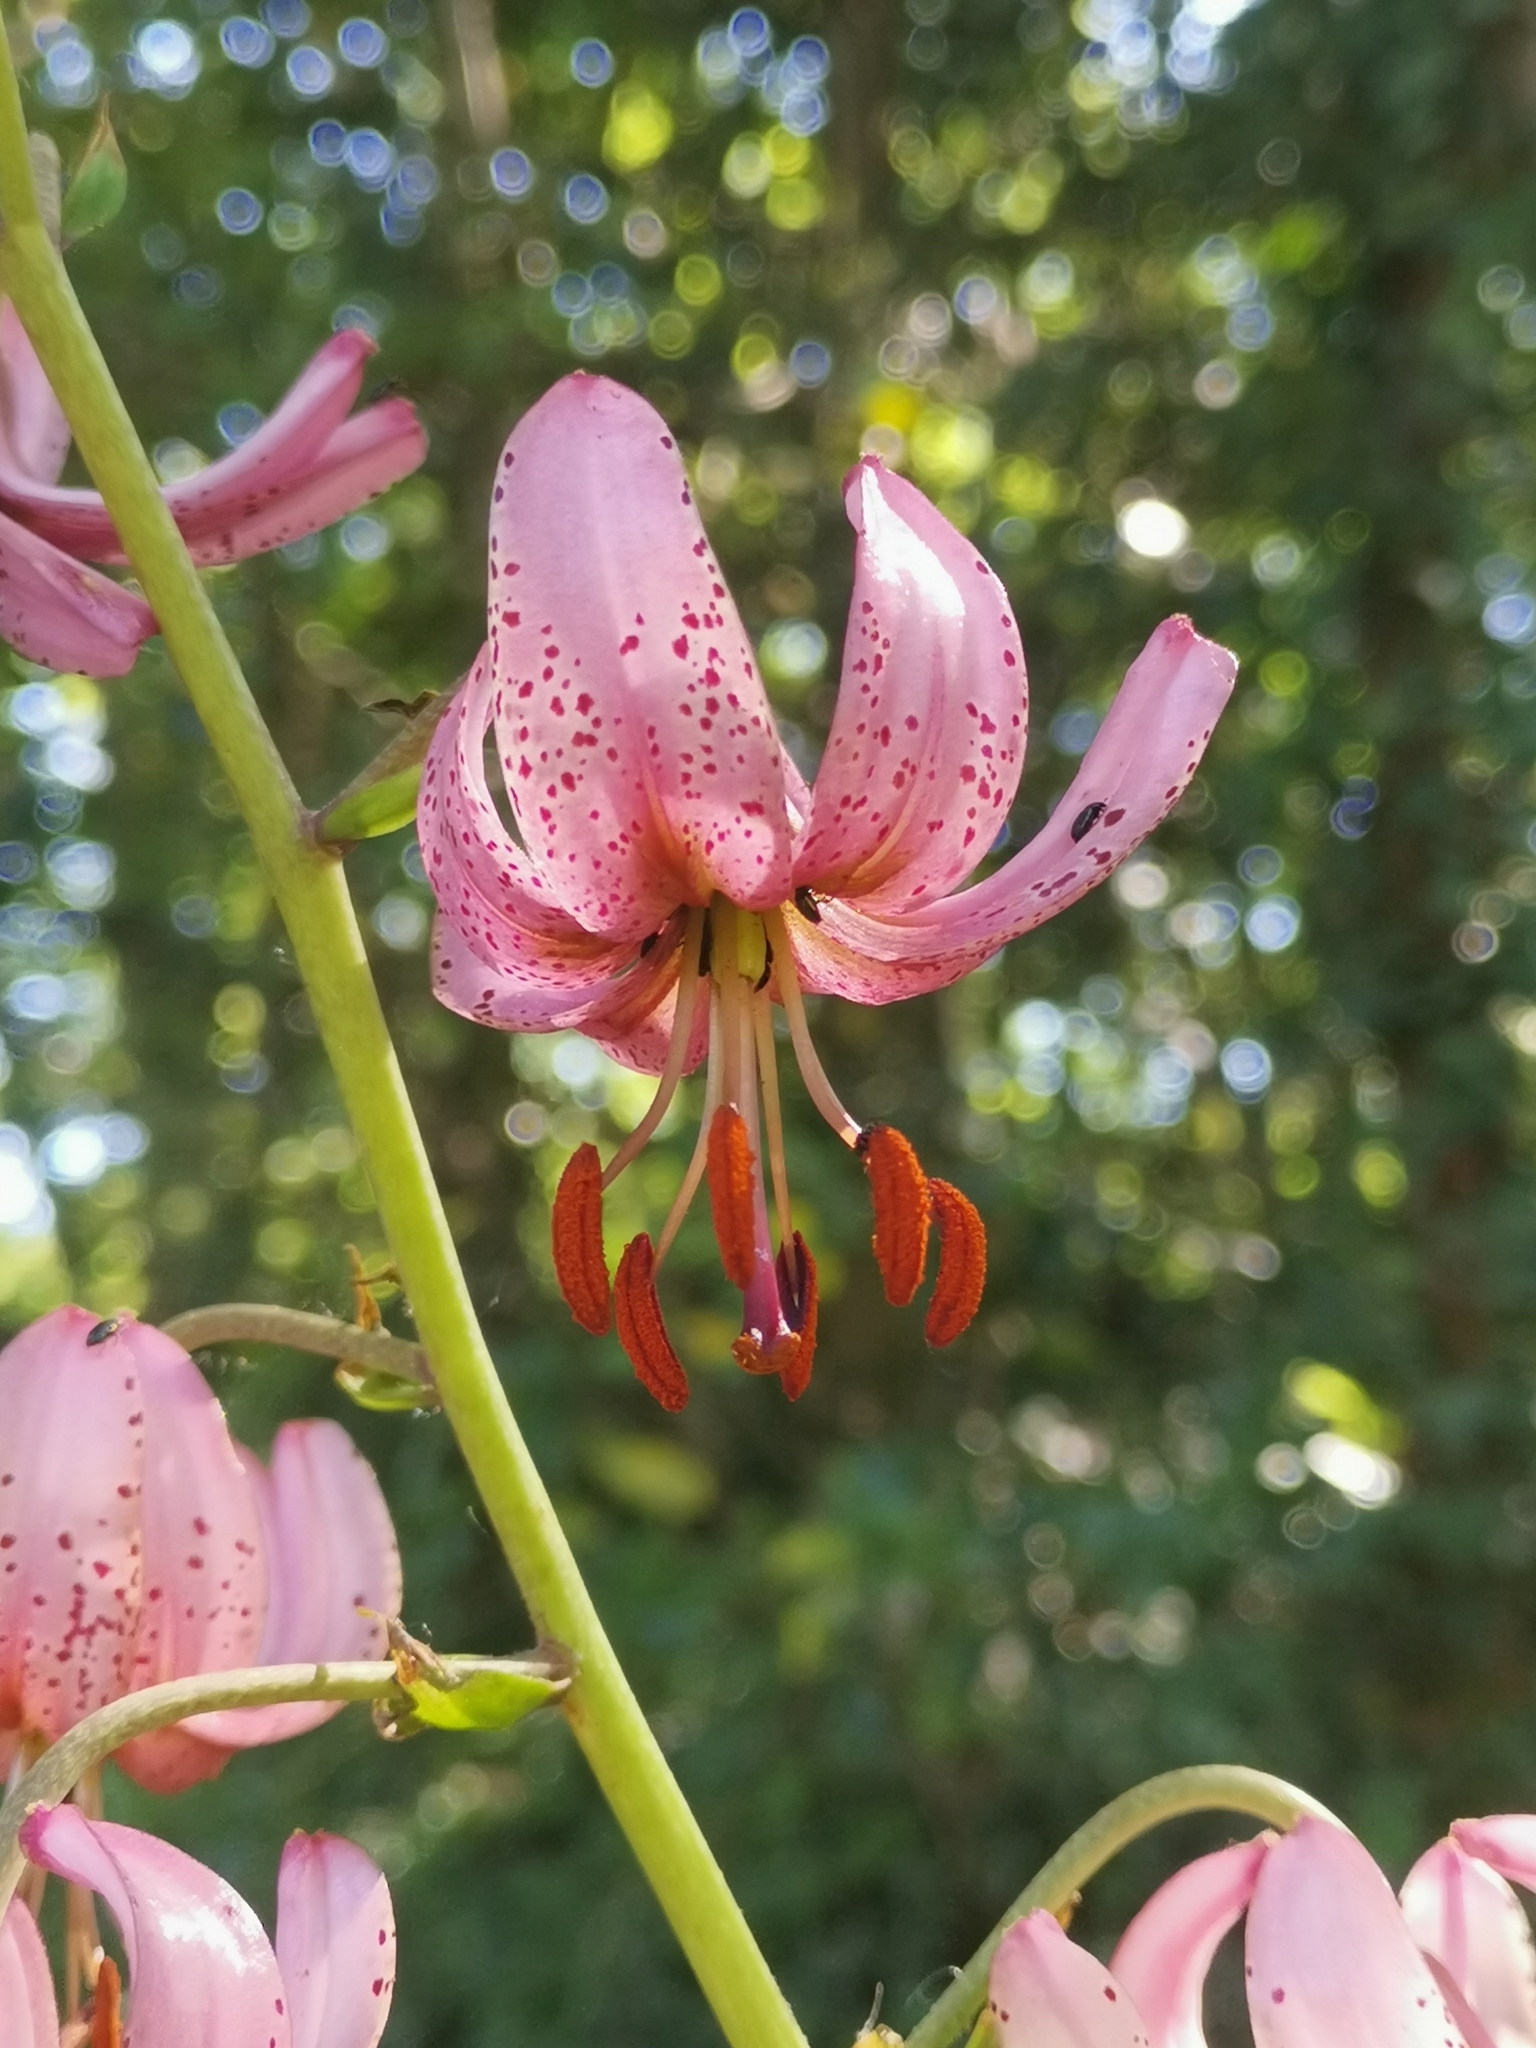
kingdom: Plantae
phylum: Tracheophyta
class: Liliopsida
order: Liliales
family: Liliaceae
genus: Lilium
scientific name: Lilium martagon
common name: Martagon lily
